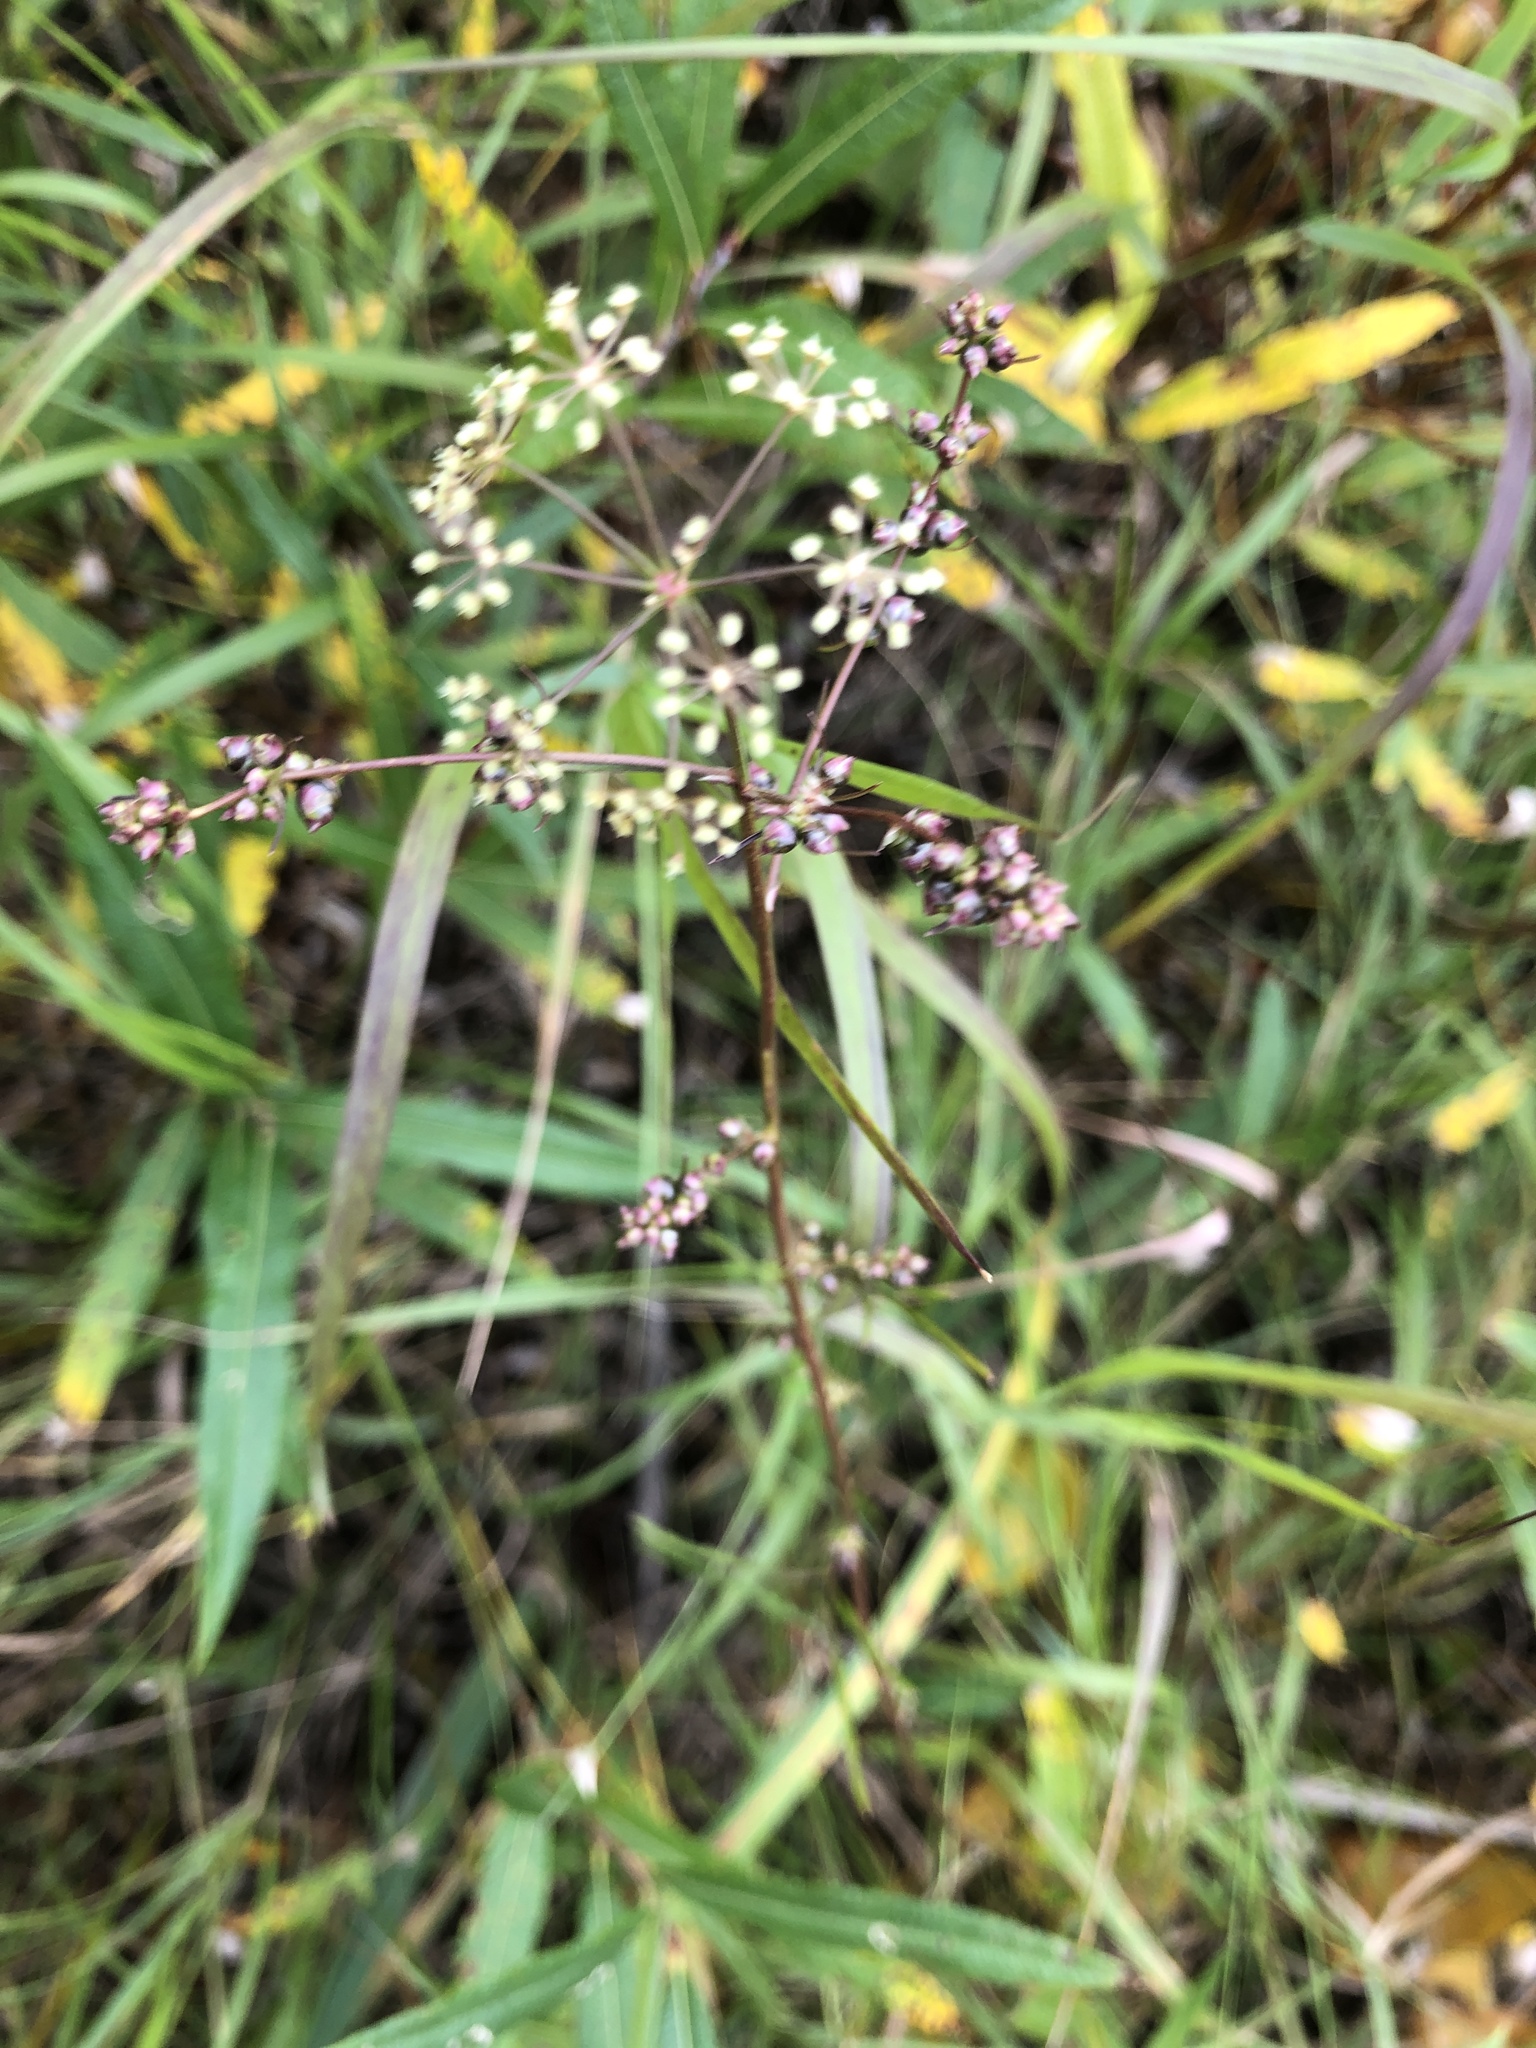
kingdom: Plantae
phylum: Tracheophyta
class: Magnoliopsida
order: Apiales
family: Apiaceae
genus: Cicuta
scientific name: Cicuta bulbifera
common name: Bulb-bearing water-hemlock
